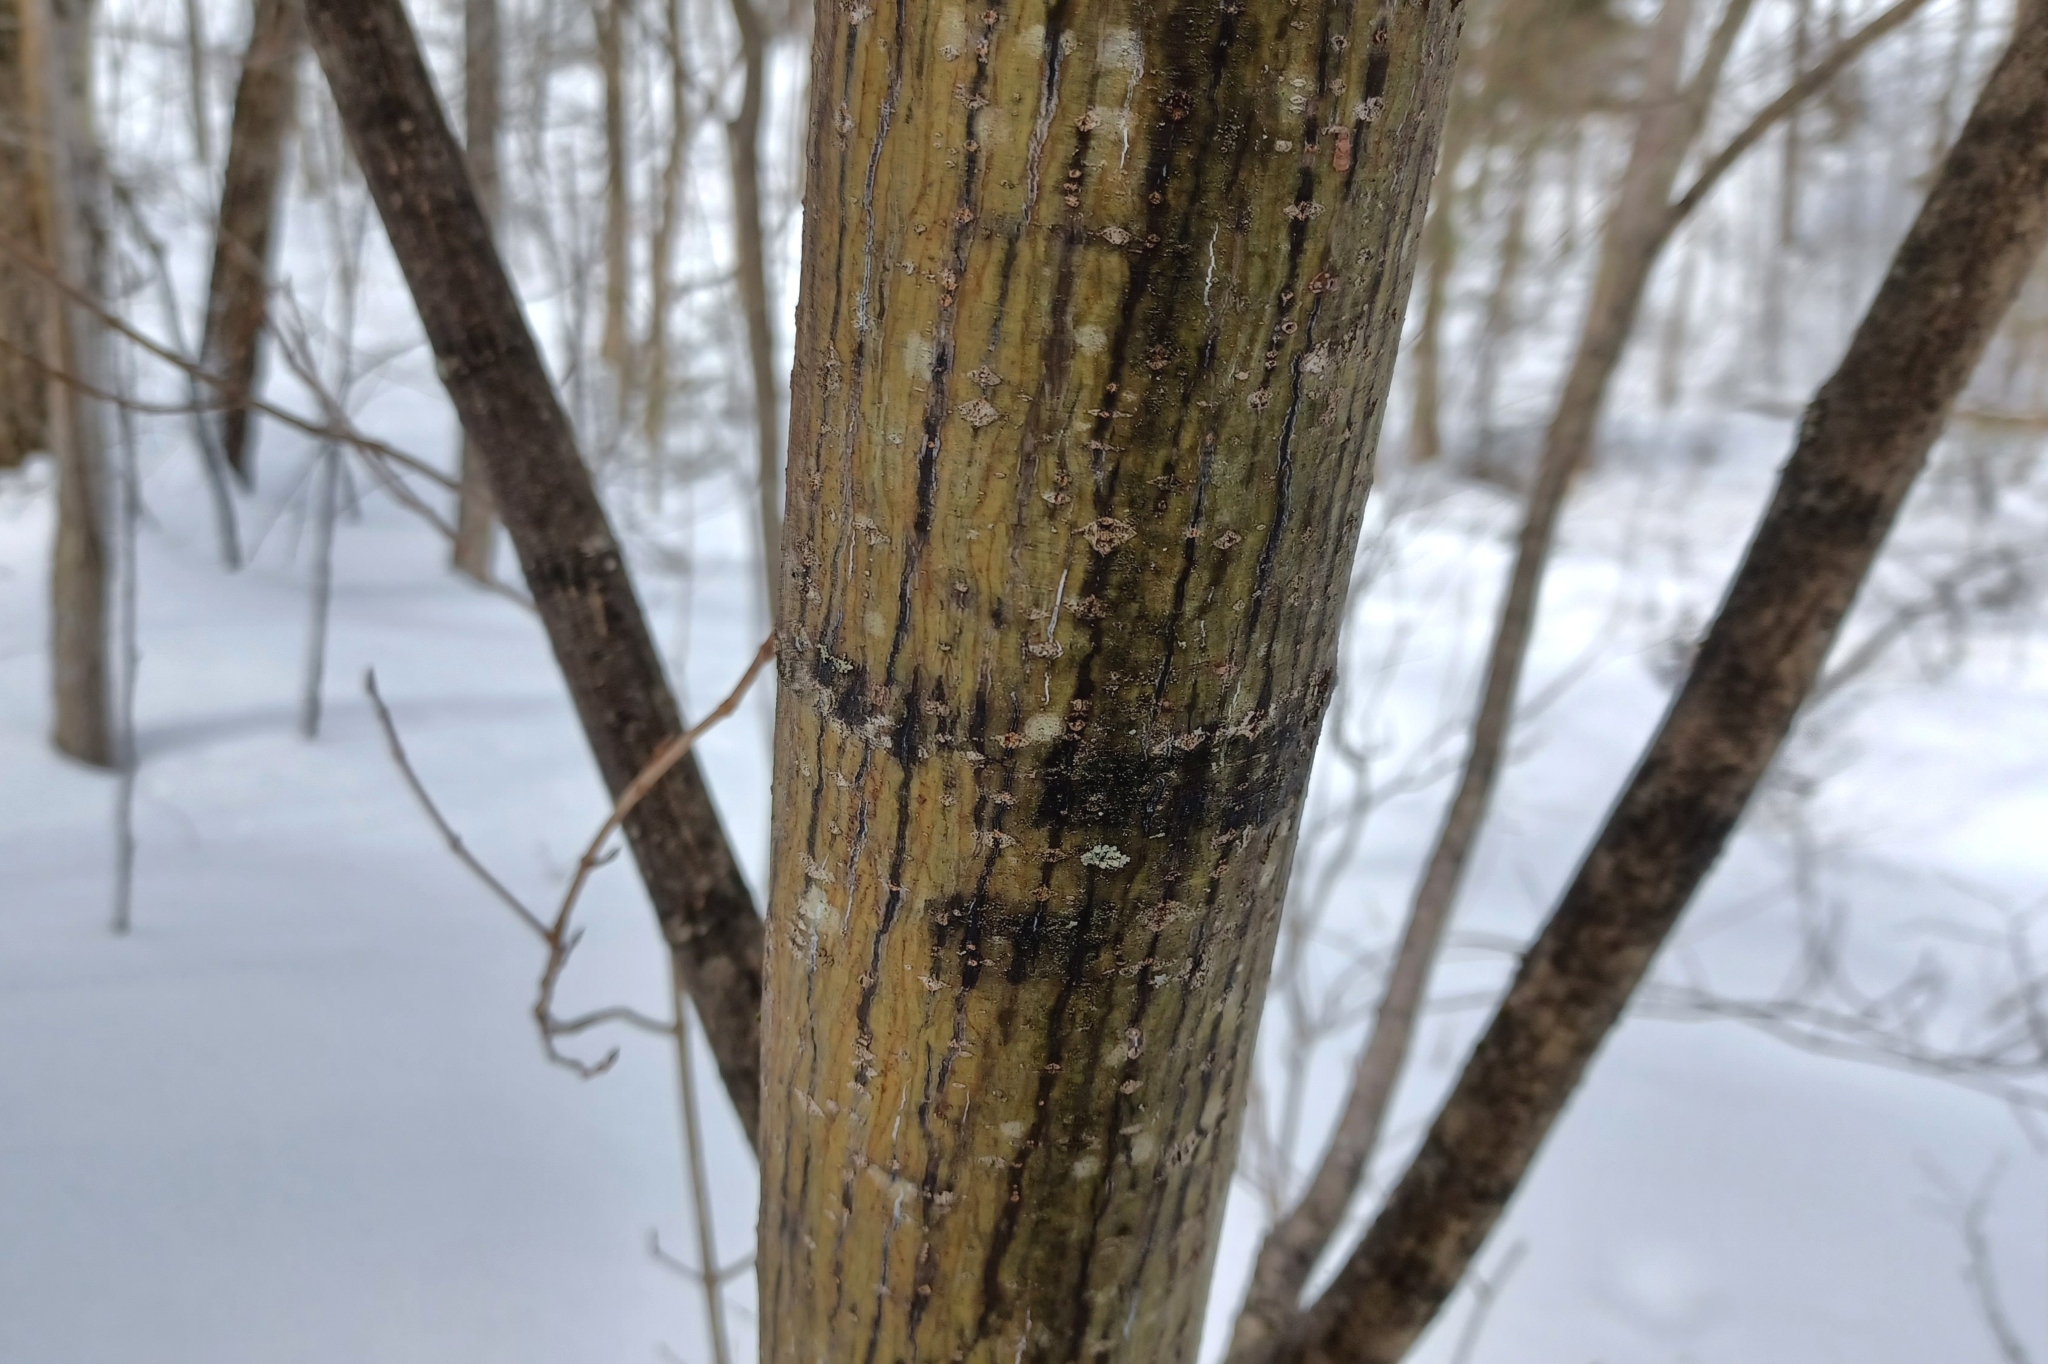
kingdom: Plantae
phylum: Tracheophyta
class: Magnoliopsida
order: Sapindales
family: Sapindaceae
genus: Acer
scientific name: Acer pensylvanicum
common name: Moosewood
